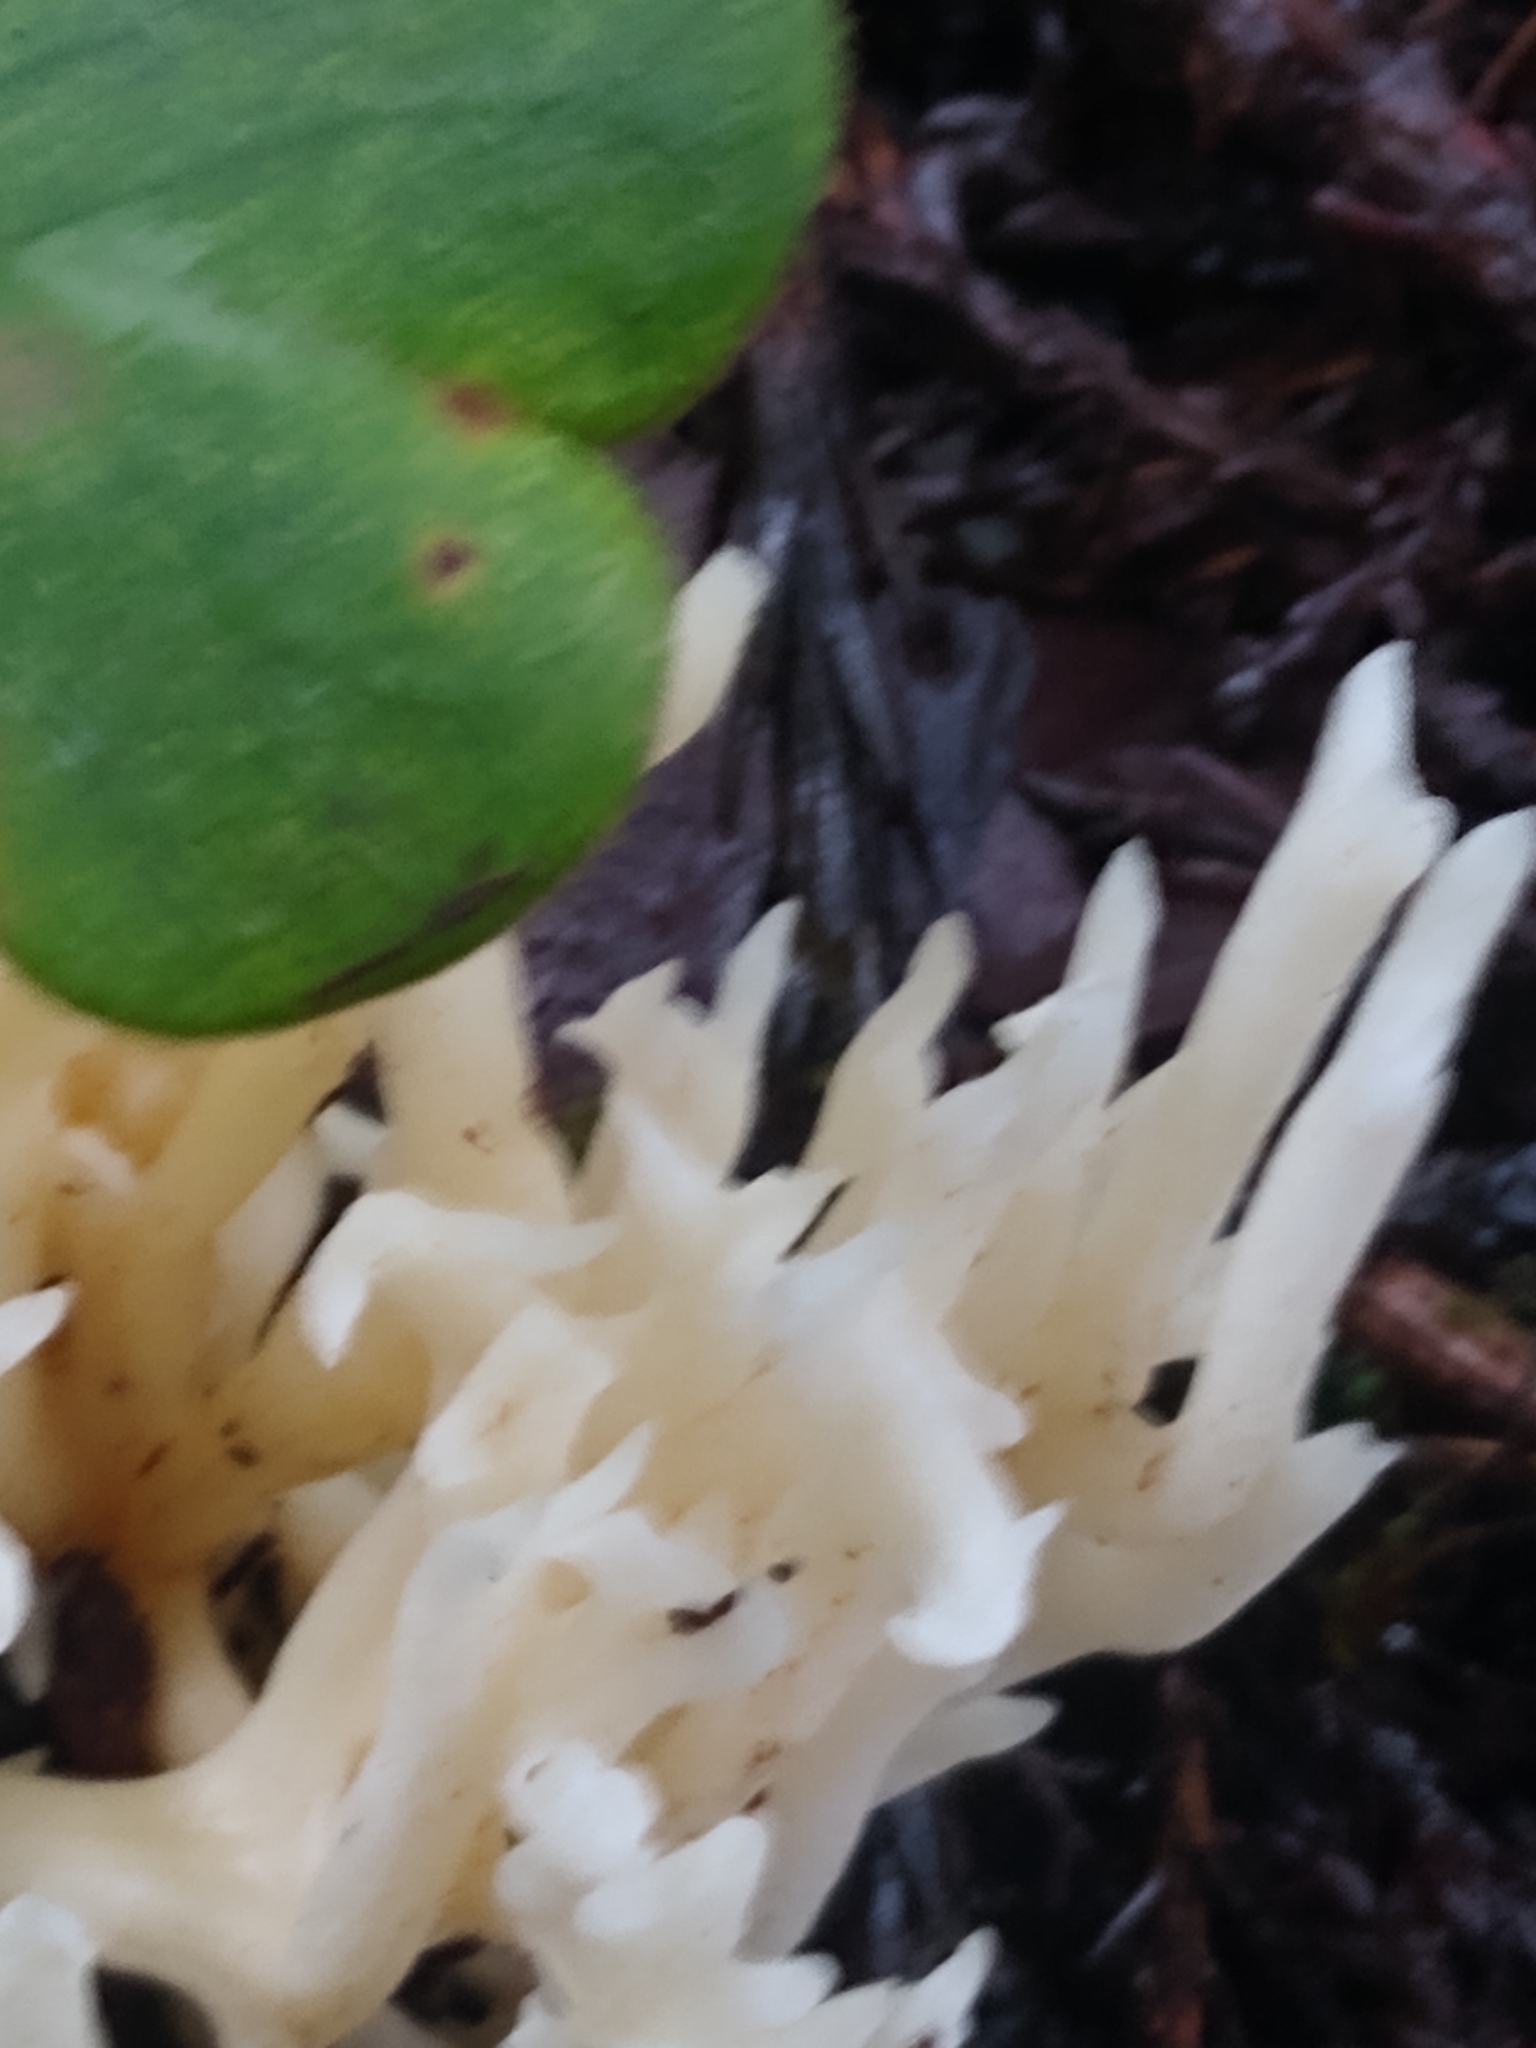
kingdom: Fungi
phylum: Basidiomycota
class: Agaricomycetes
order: Agaricales
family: Clavariaceae
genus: Ramariopsis
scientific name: Ramariopsis kunzei
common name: Ivory coral
